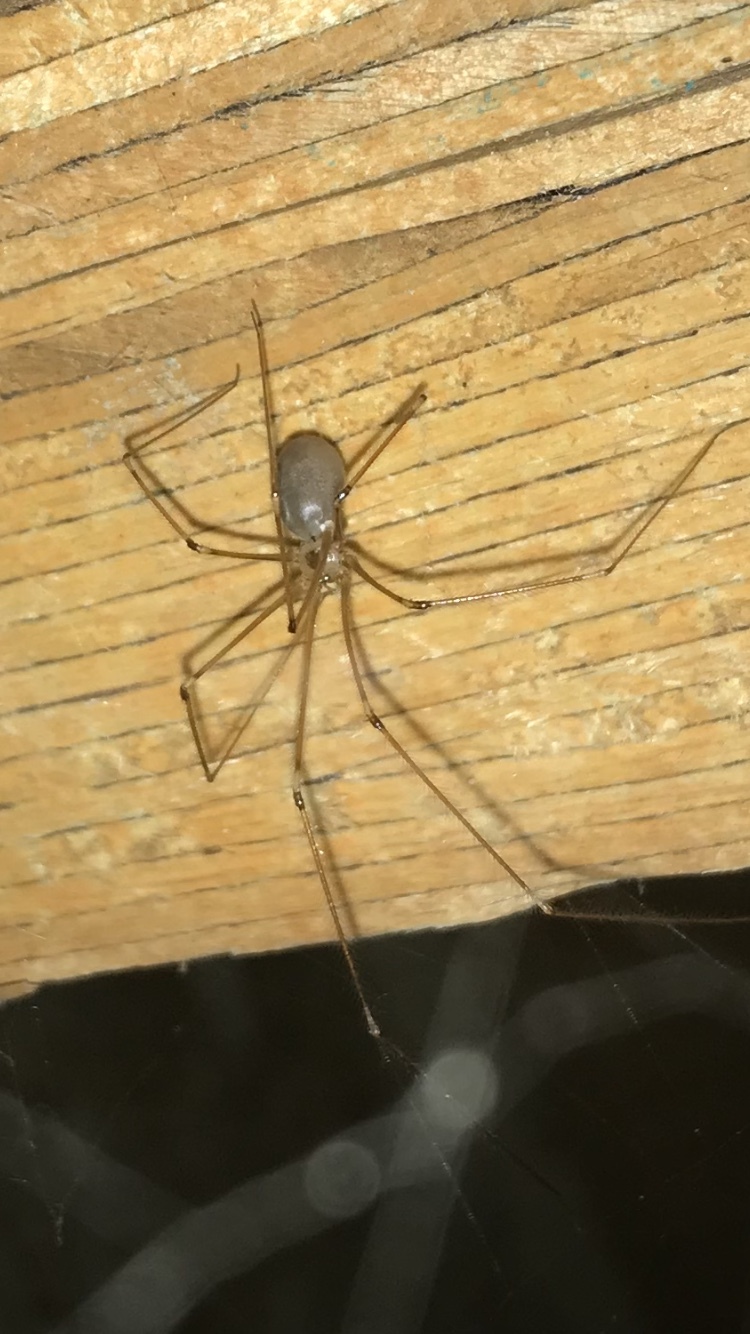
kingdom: Animalia
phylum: Arthropoda
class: Arachnida
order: Araneae
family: Pholcidae
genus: Pholcus
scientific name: Pholcus phalangioides
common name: Longbodied cellar spider
